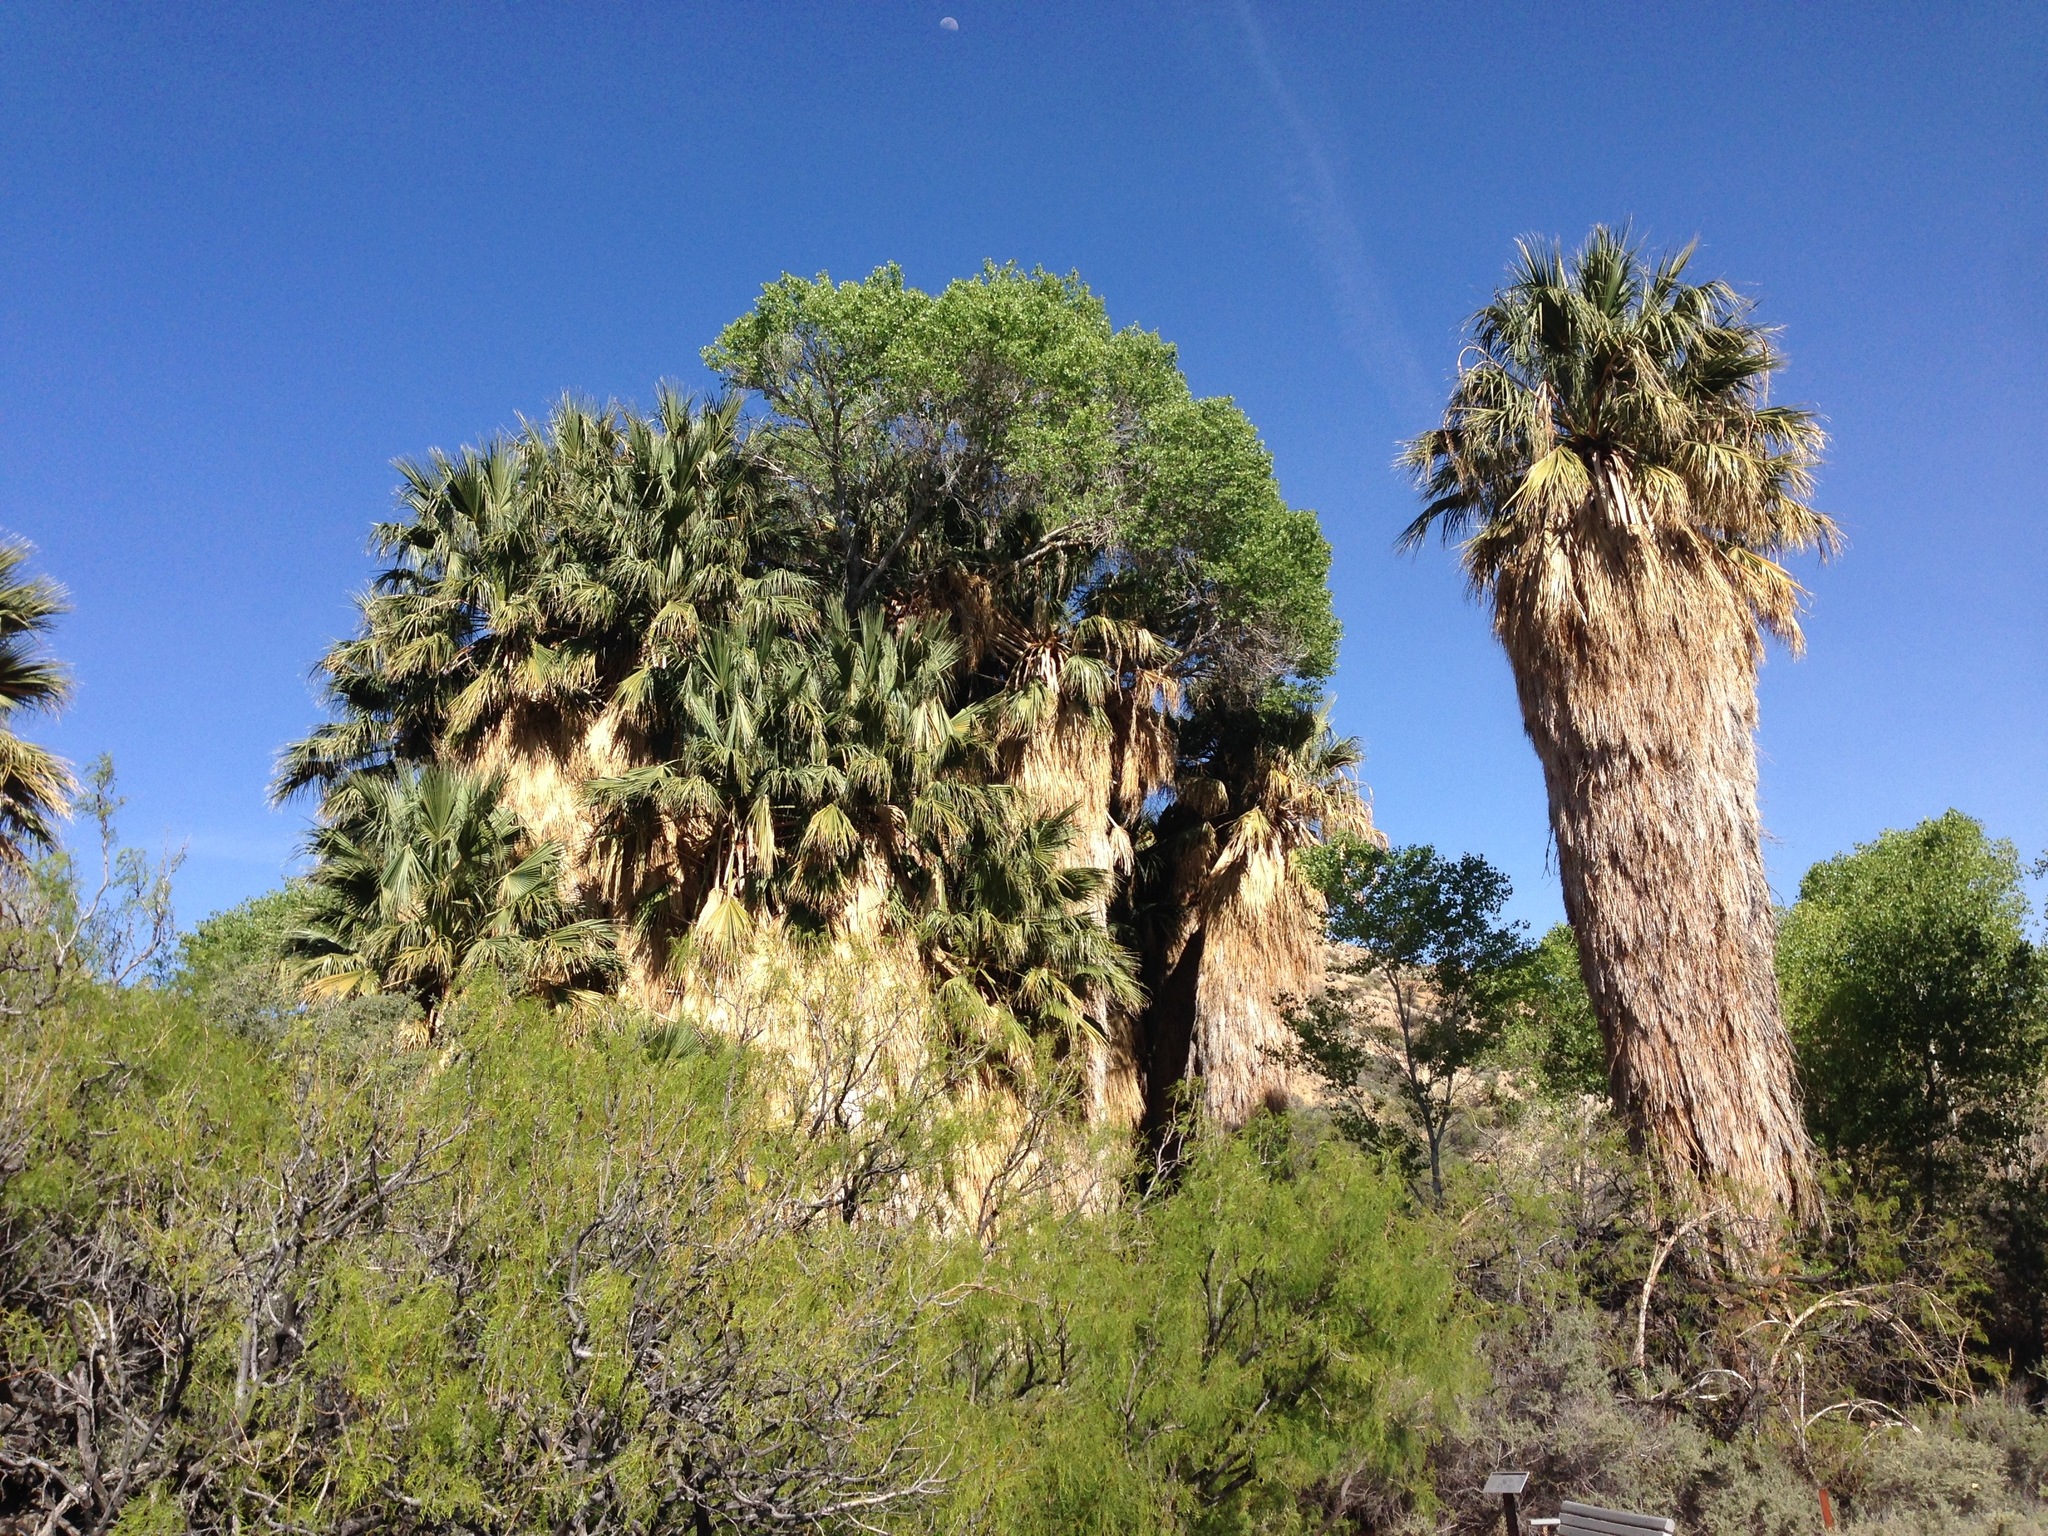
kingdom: Plantae
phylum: Tracheophyta
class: Liliopsida
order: Arecales
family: Arecaceae
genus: Washingtonia
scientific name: Washingtonia filifera
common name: California fan palm
